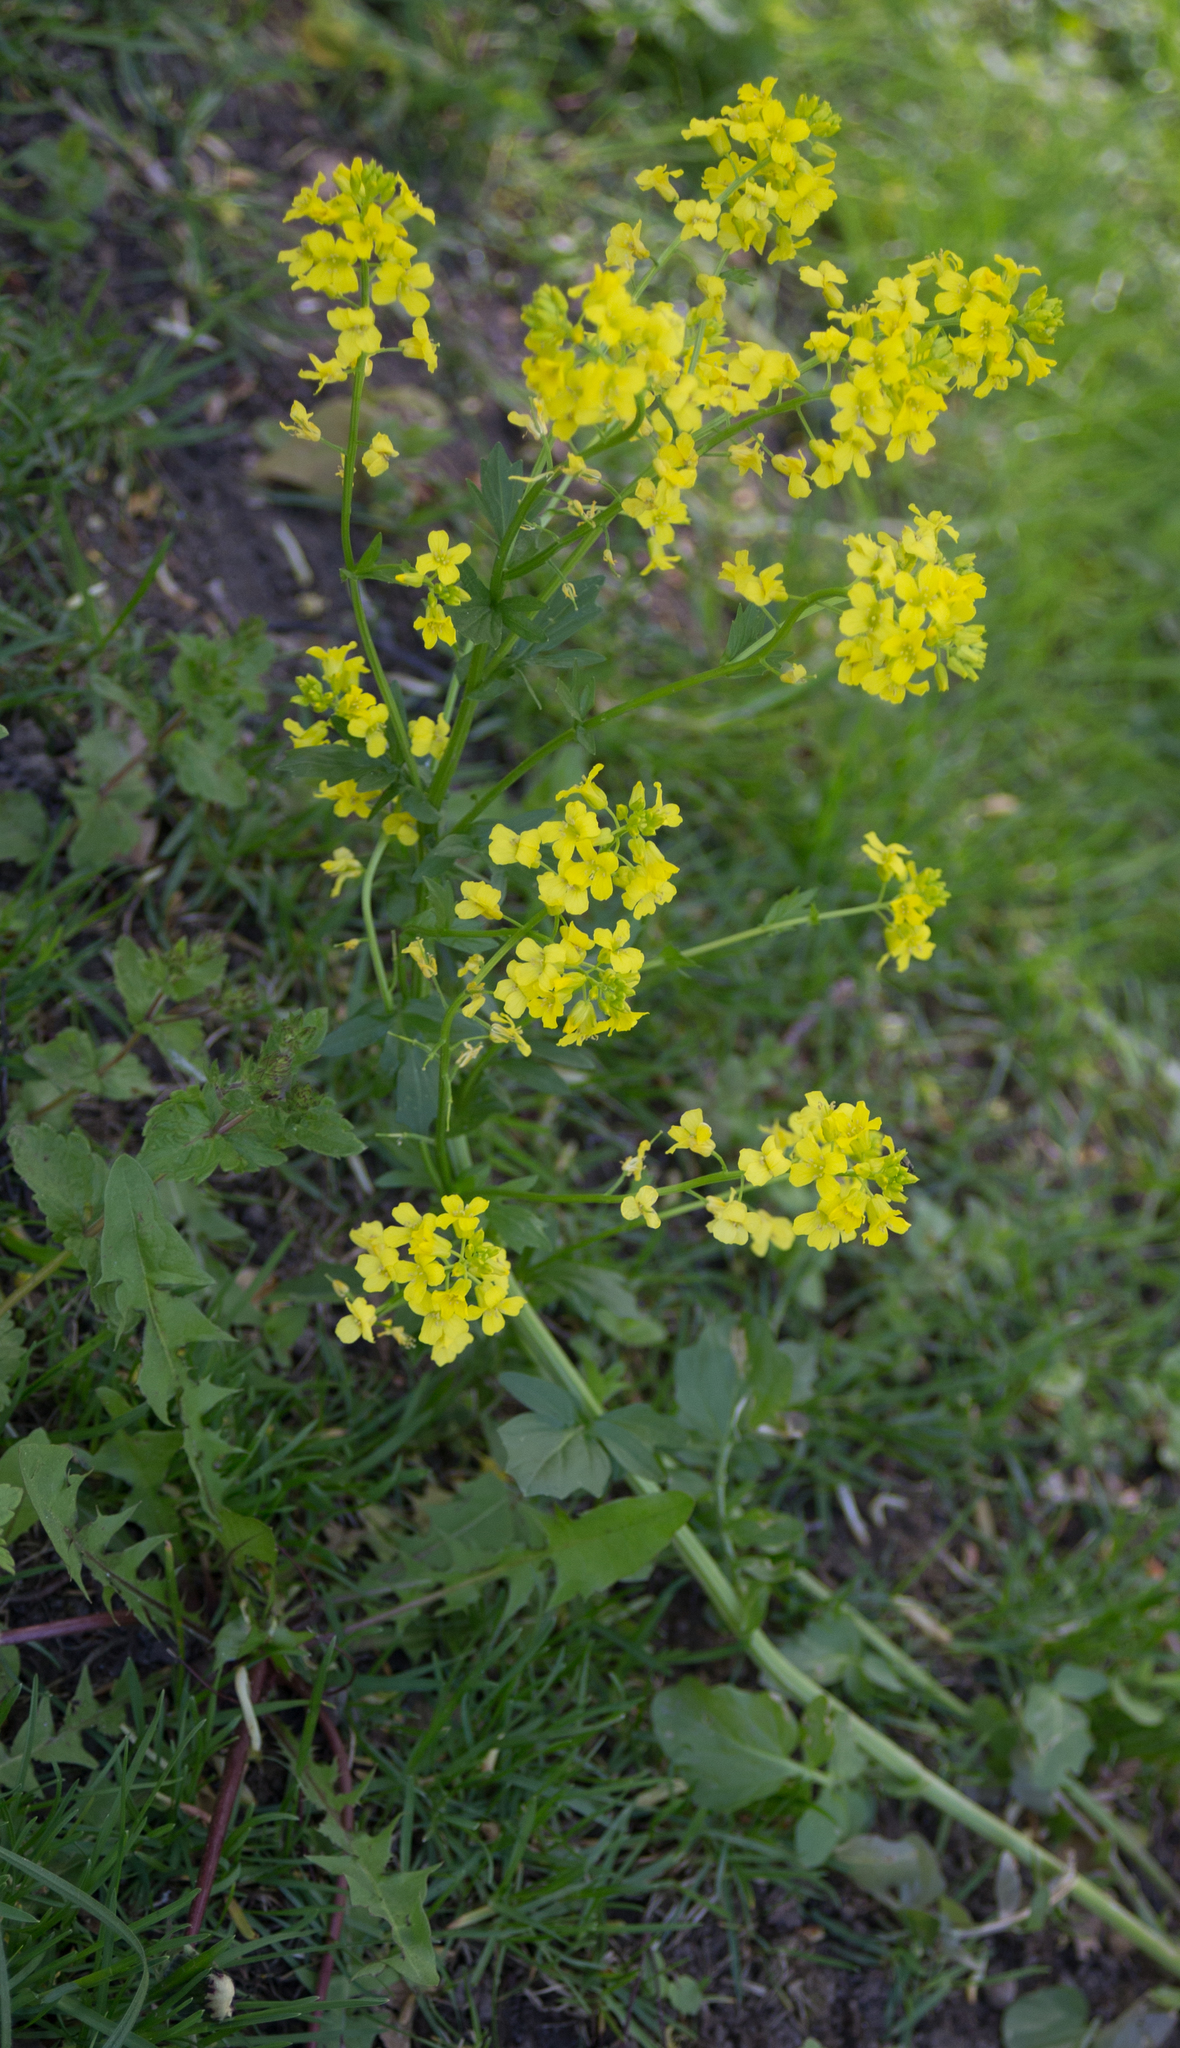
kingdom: Plantae
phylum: Tracheophyta
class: Magnoliopsida
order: Brassicales
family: Brassicaceae
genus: Barbarea
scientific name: Barbarea vulgaris
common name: Cressy-greens
